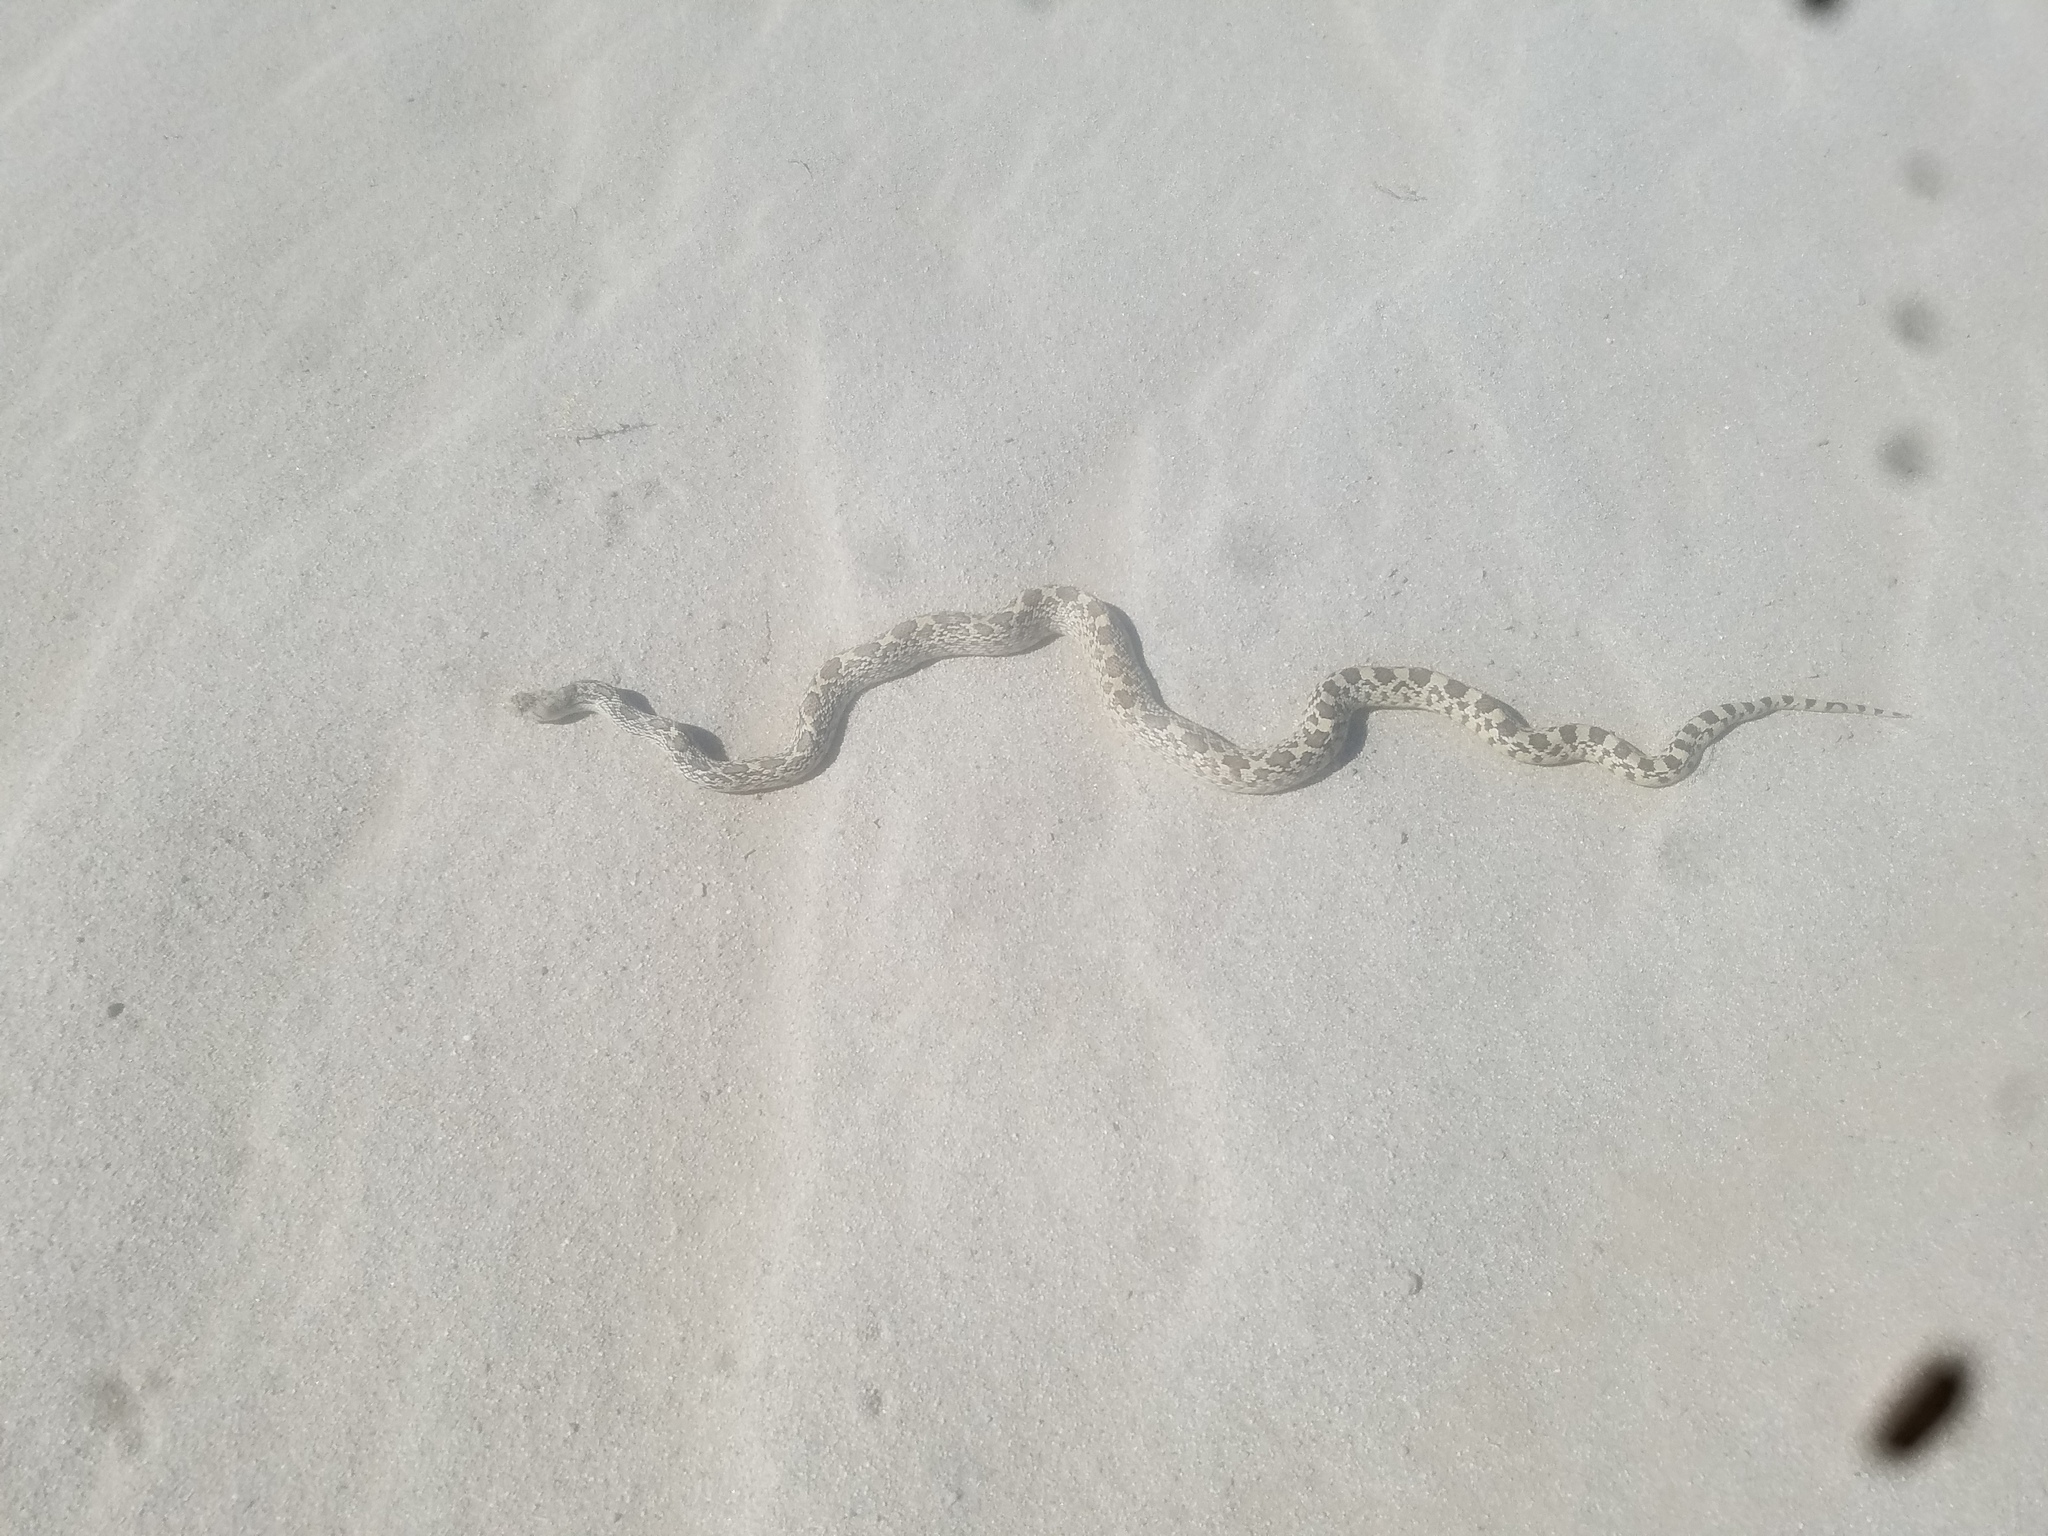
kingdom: Animalia
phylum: Chordata
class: Squamata
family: Colubridae
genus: Pituophis
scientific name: Pituophis catenifer
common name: Gopher snake
